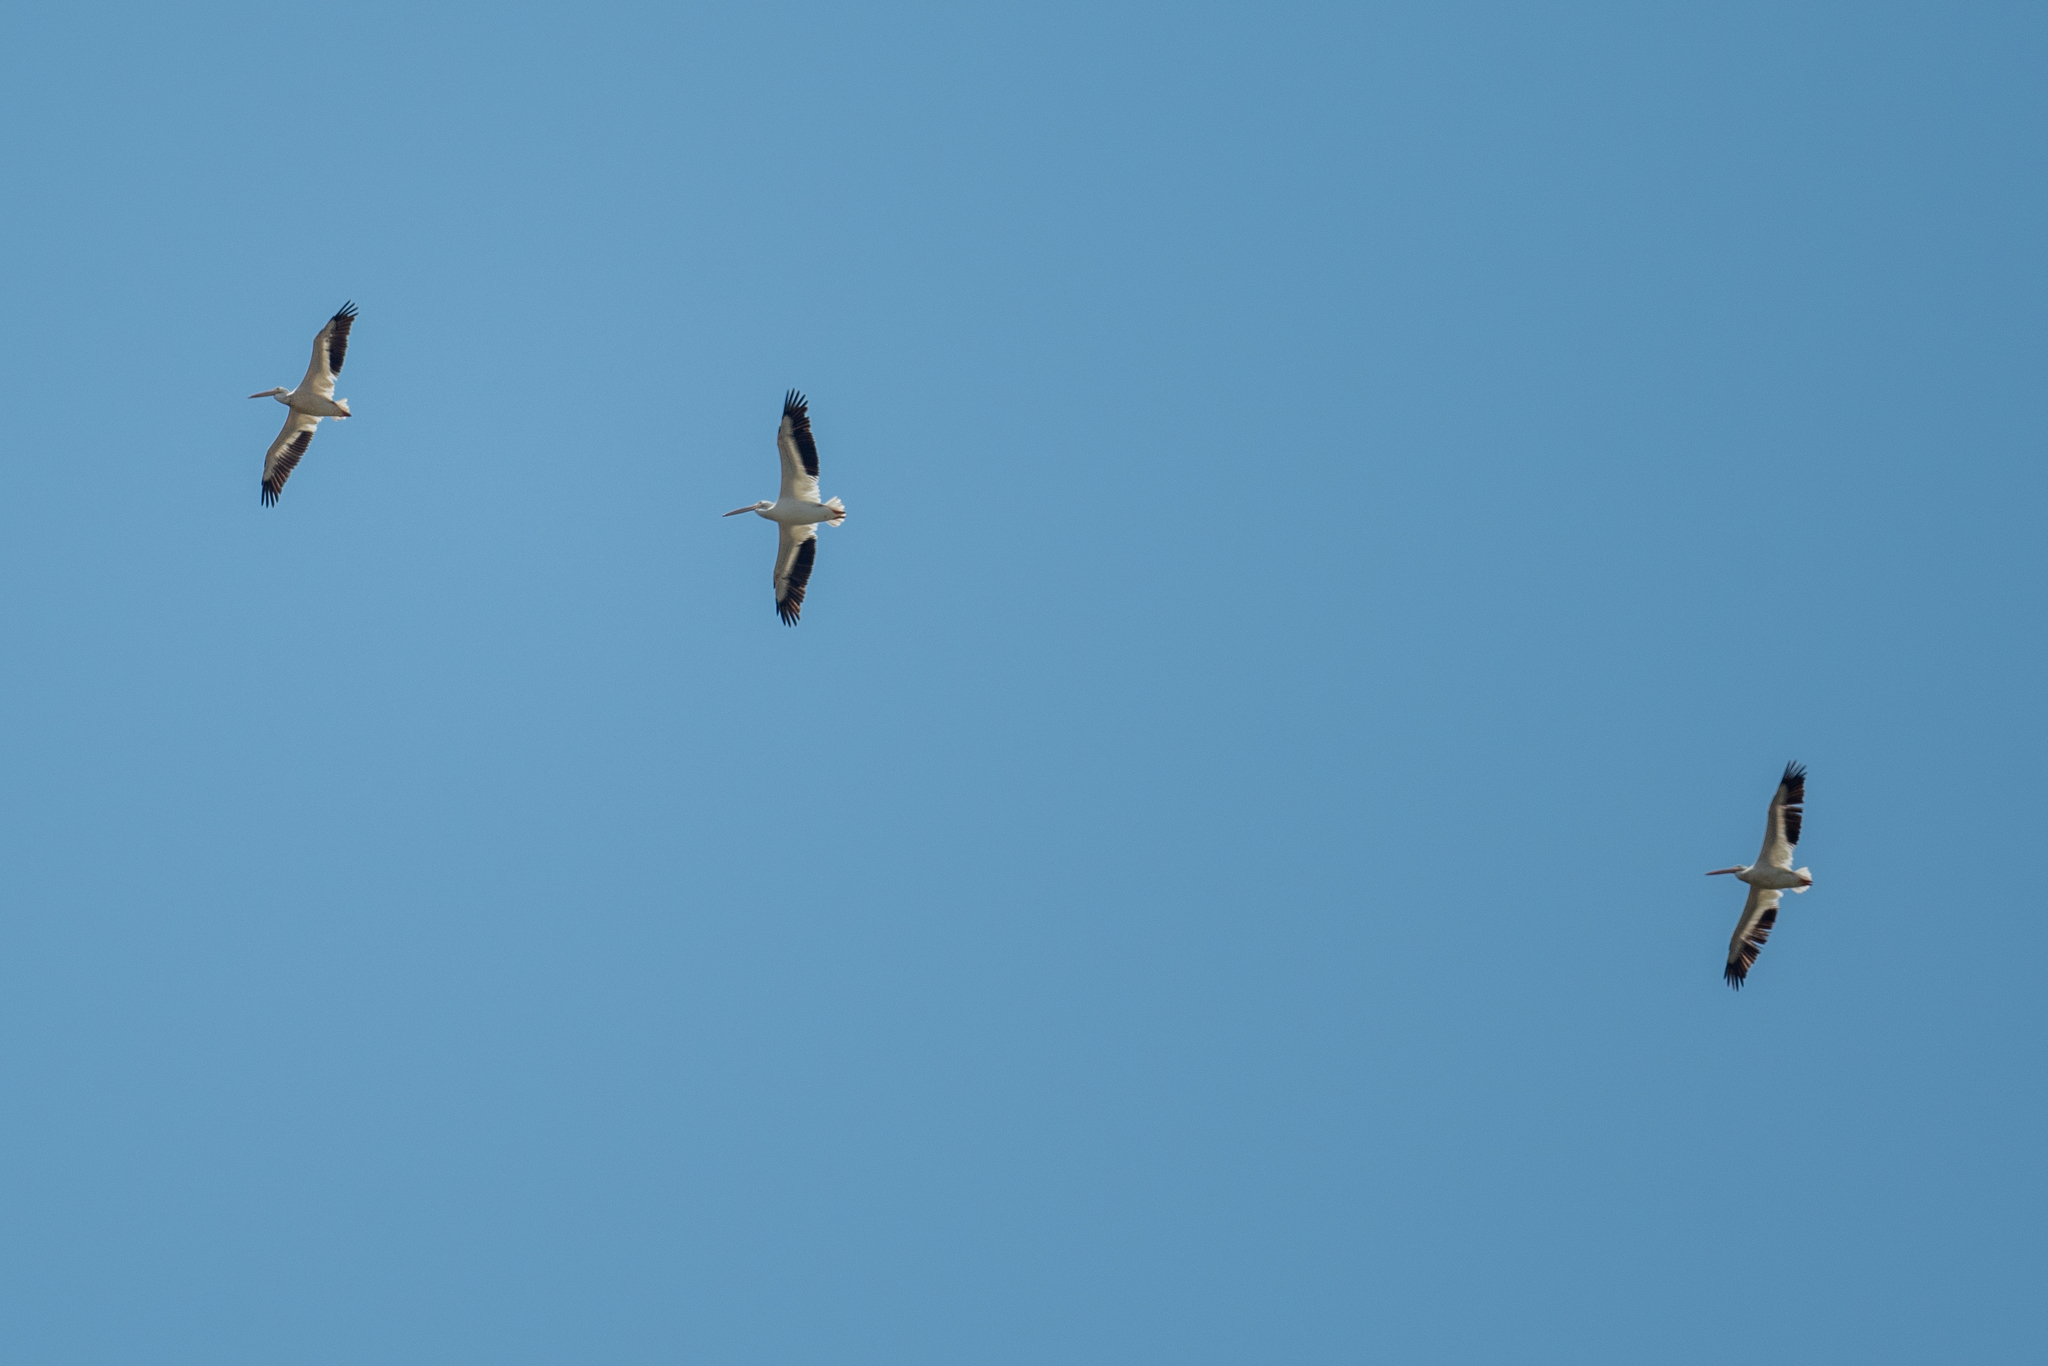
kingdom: Animalia
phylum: Chordata
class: Aves
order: Pelecaniformes
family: Pelecanidae
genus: Pelecanus
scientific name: Pelecanus erythrorhynchos
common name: American white pelican
